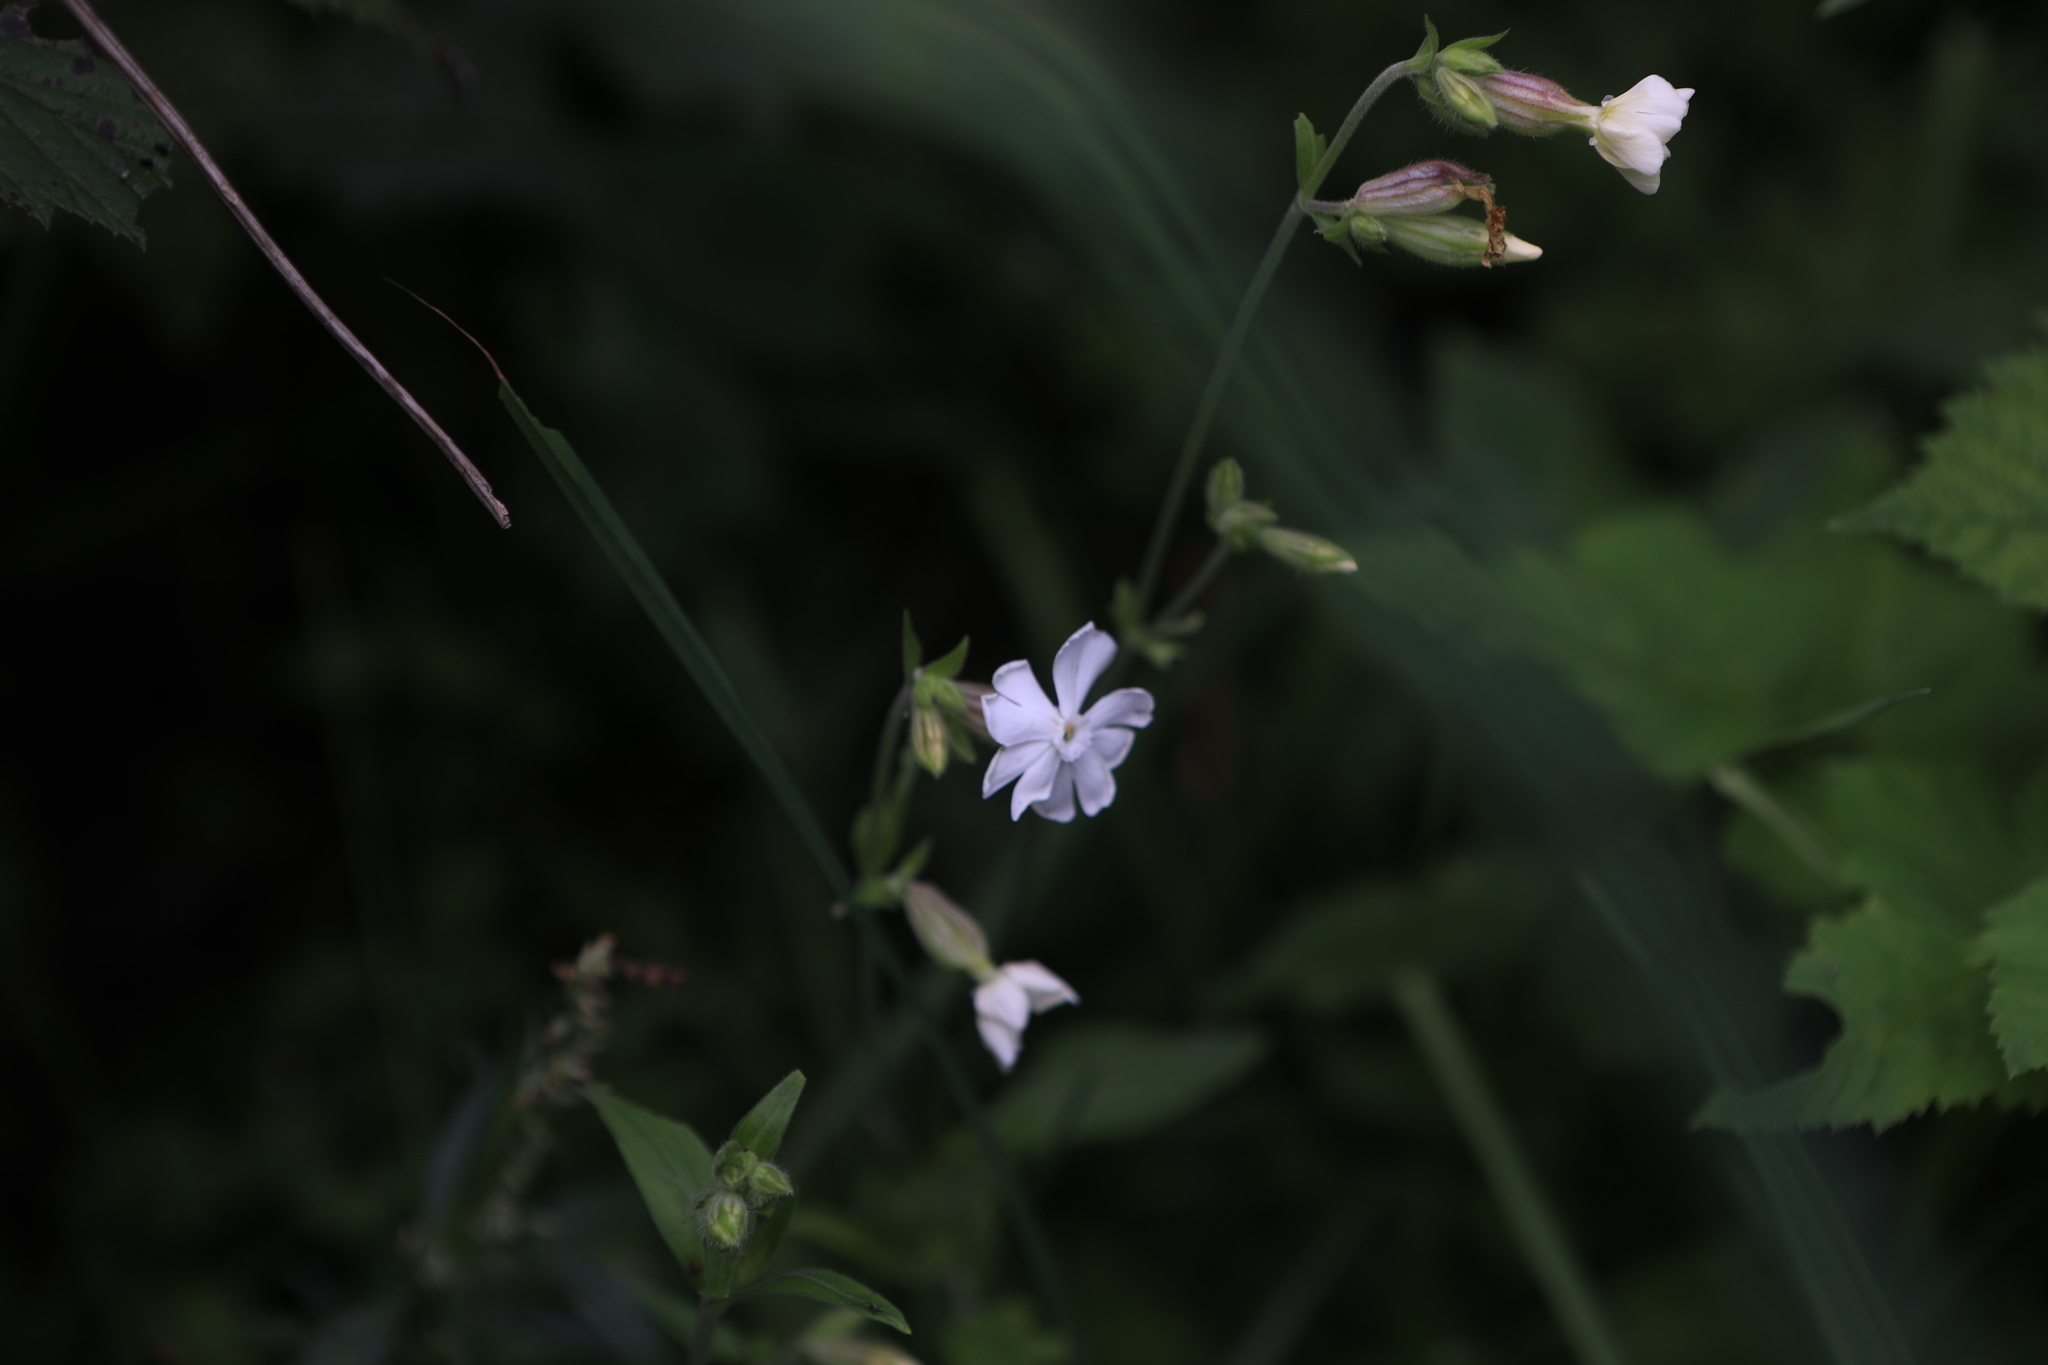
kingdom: Plantae
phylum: Tracheophyta
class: Magnoliopsida
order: Caryophyllales
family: Caryophyllaceae
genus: Silene
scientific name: Silene latifolia
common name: White campion
